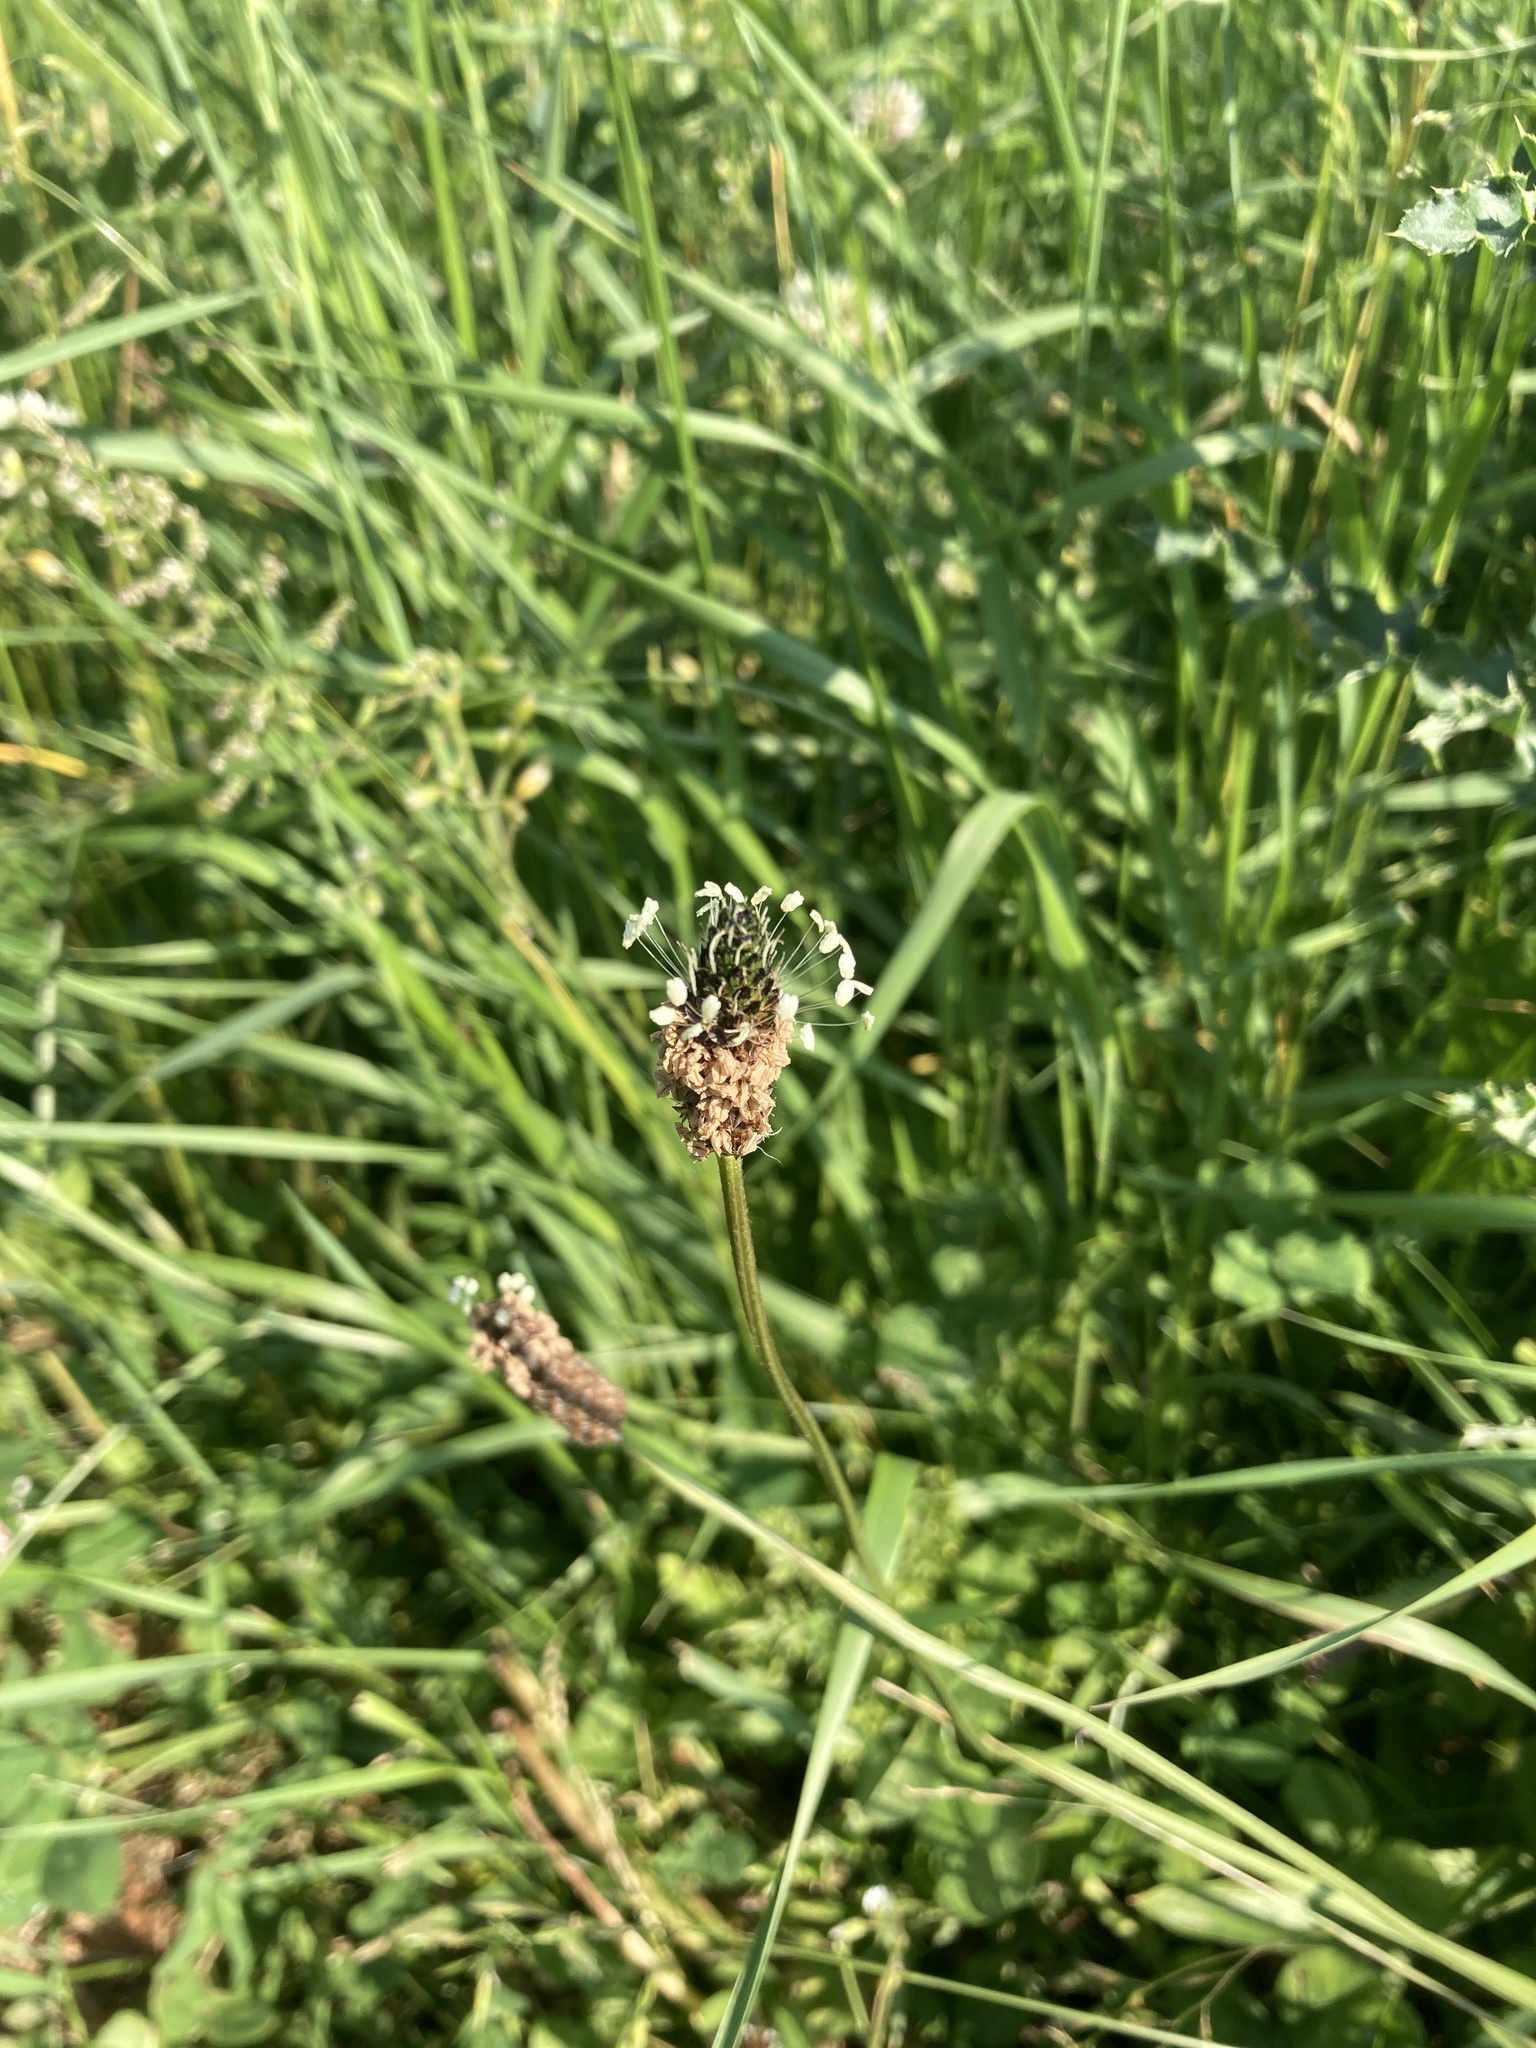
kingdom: Plantae
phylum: Tracheophyta
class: Magnoliopsida
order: Lamiales
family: Plantaginaceae
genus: Plantago
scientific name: Plantago lanceolata
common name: Ribwort plantain
